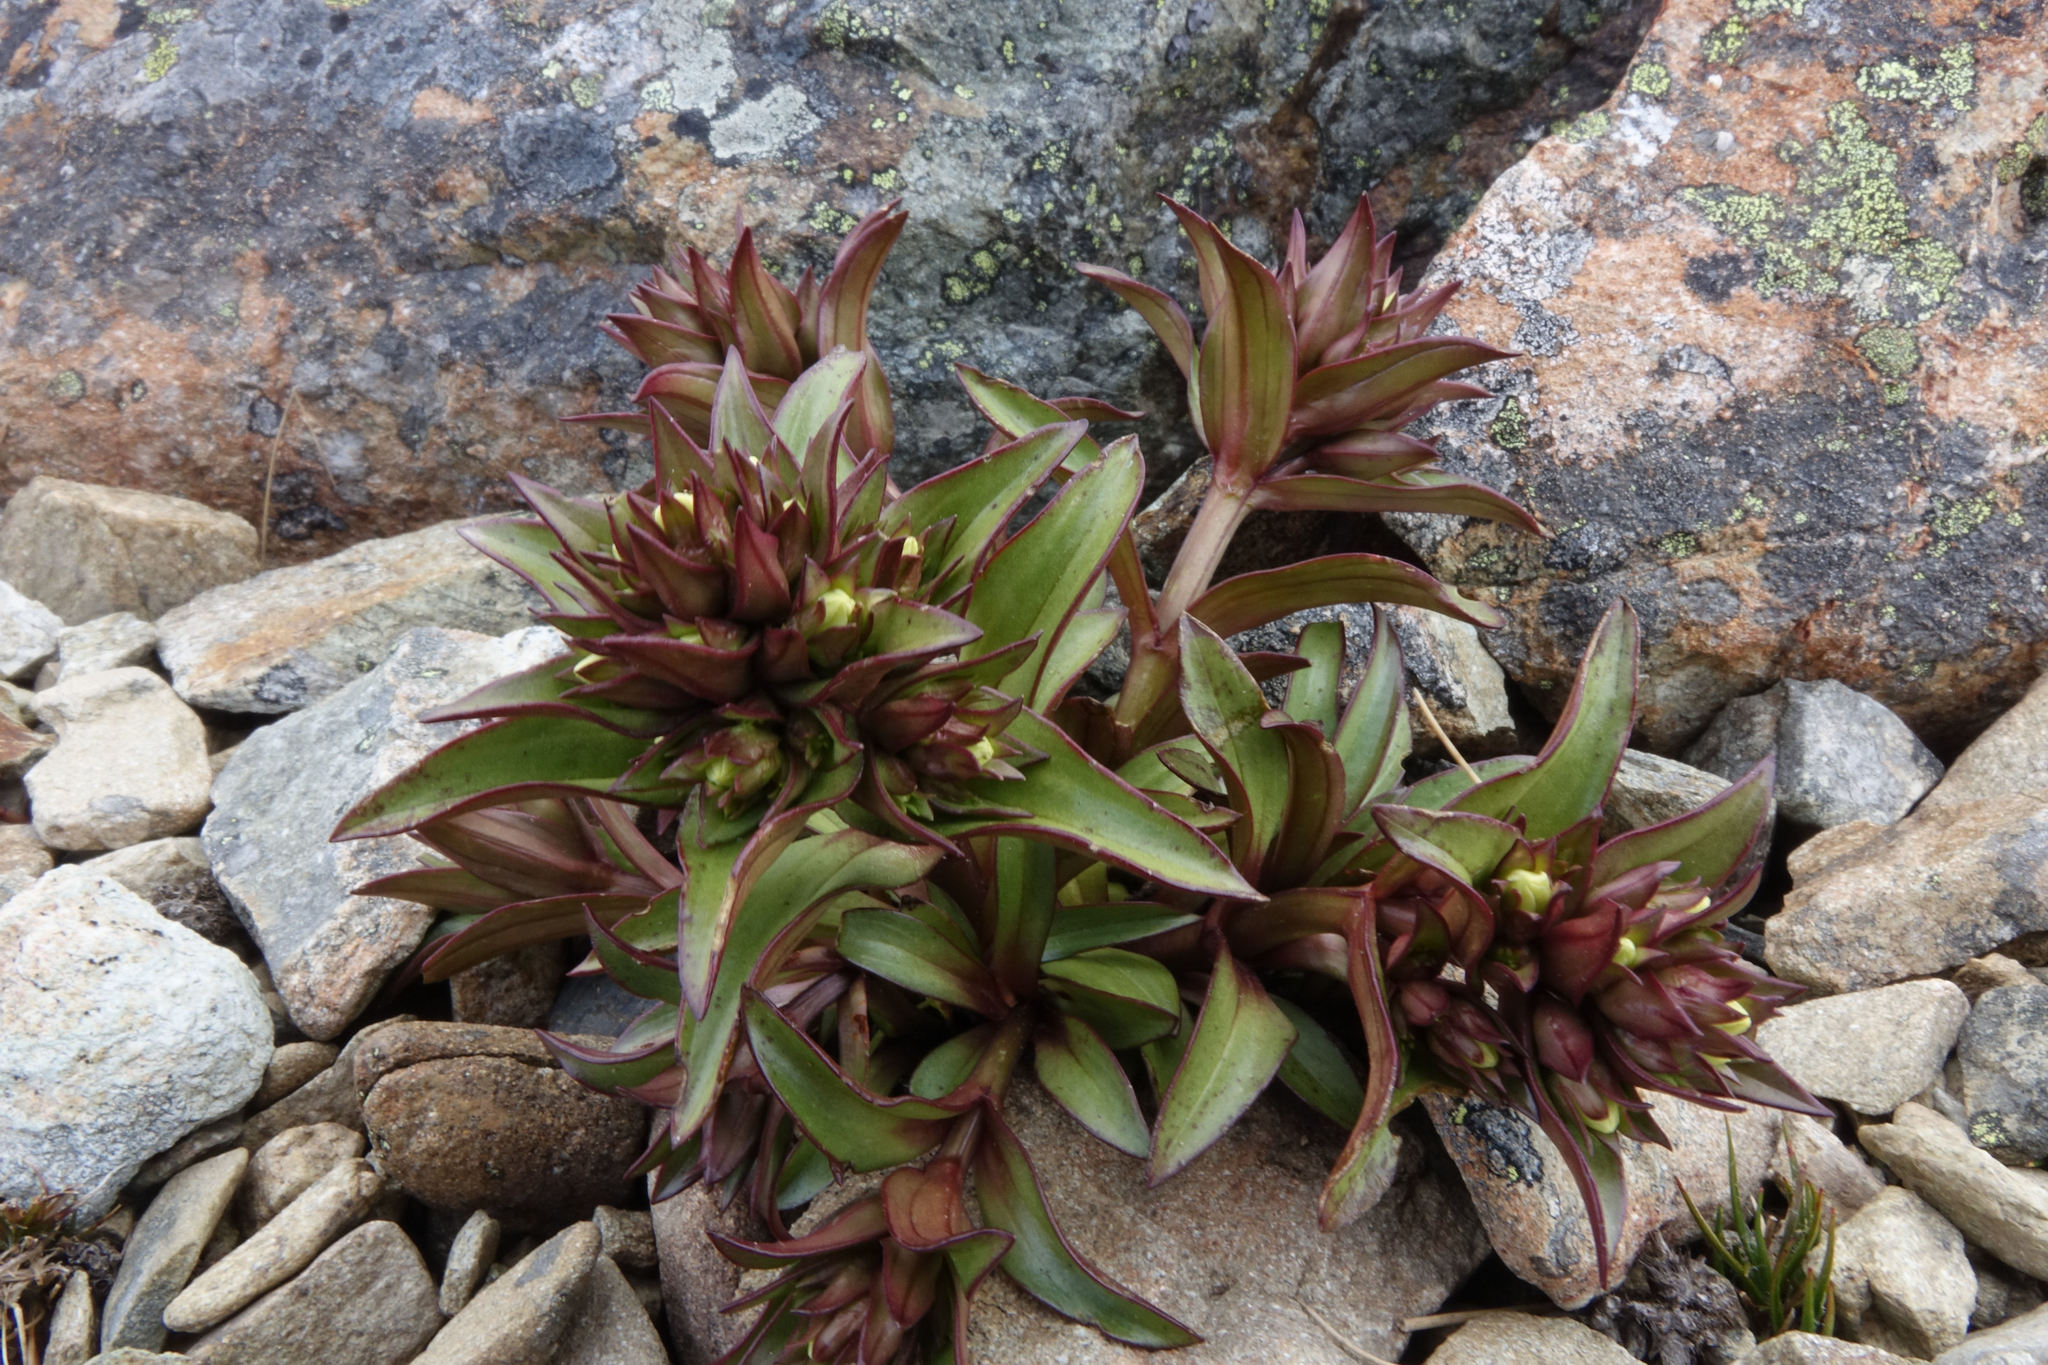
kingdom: Plantae
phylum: Tracheophyta
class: Magnoliopsida
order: Gentianales
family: Gentianaceae
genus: Gentianella
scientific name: Gentianella divisa
